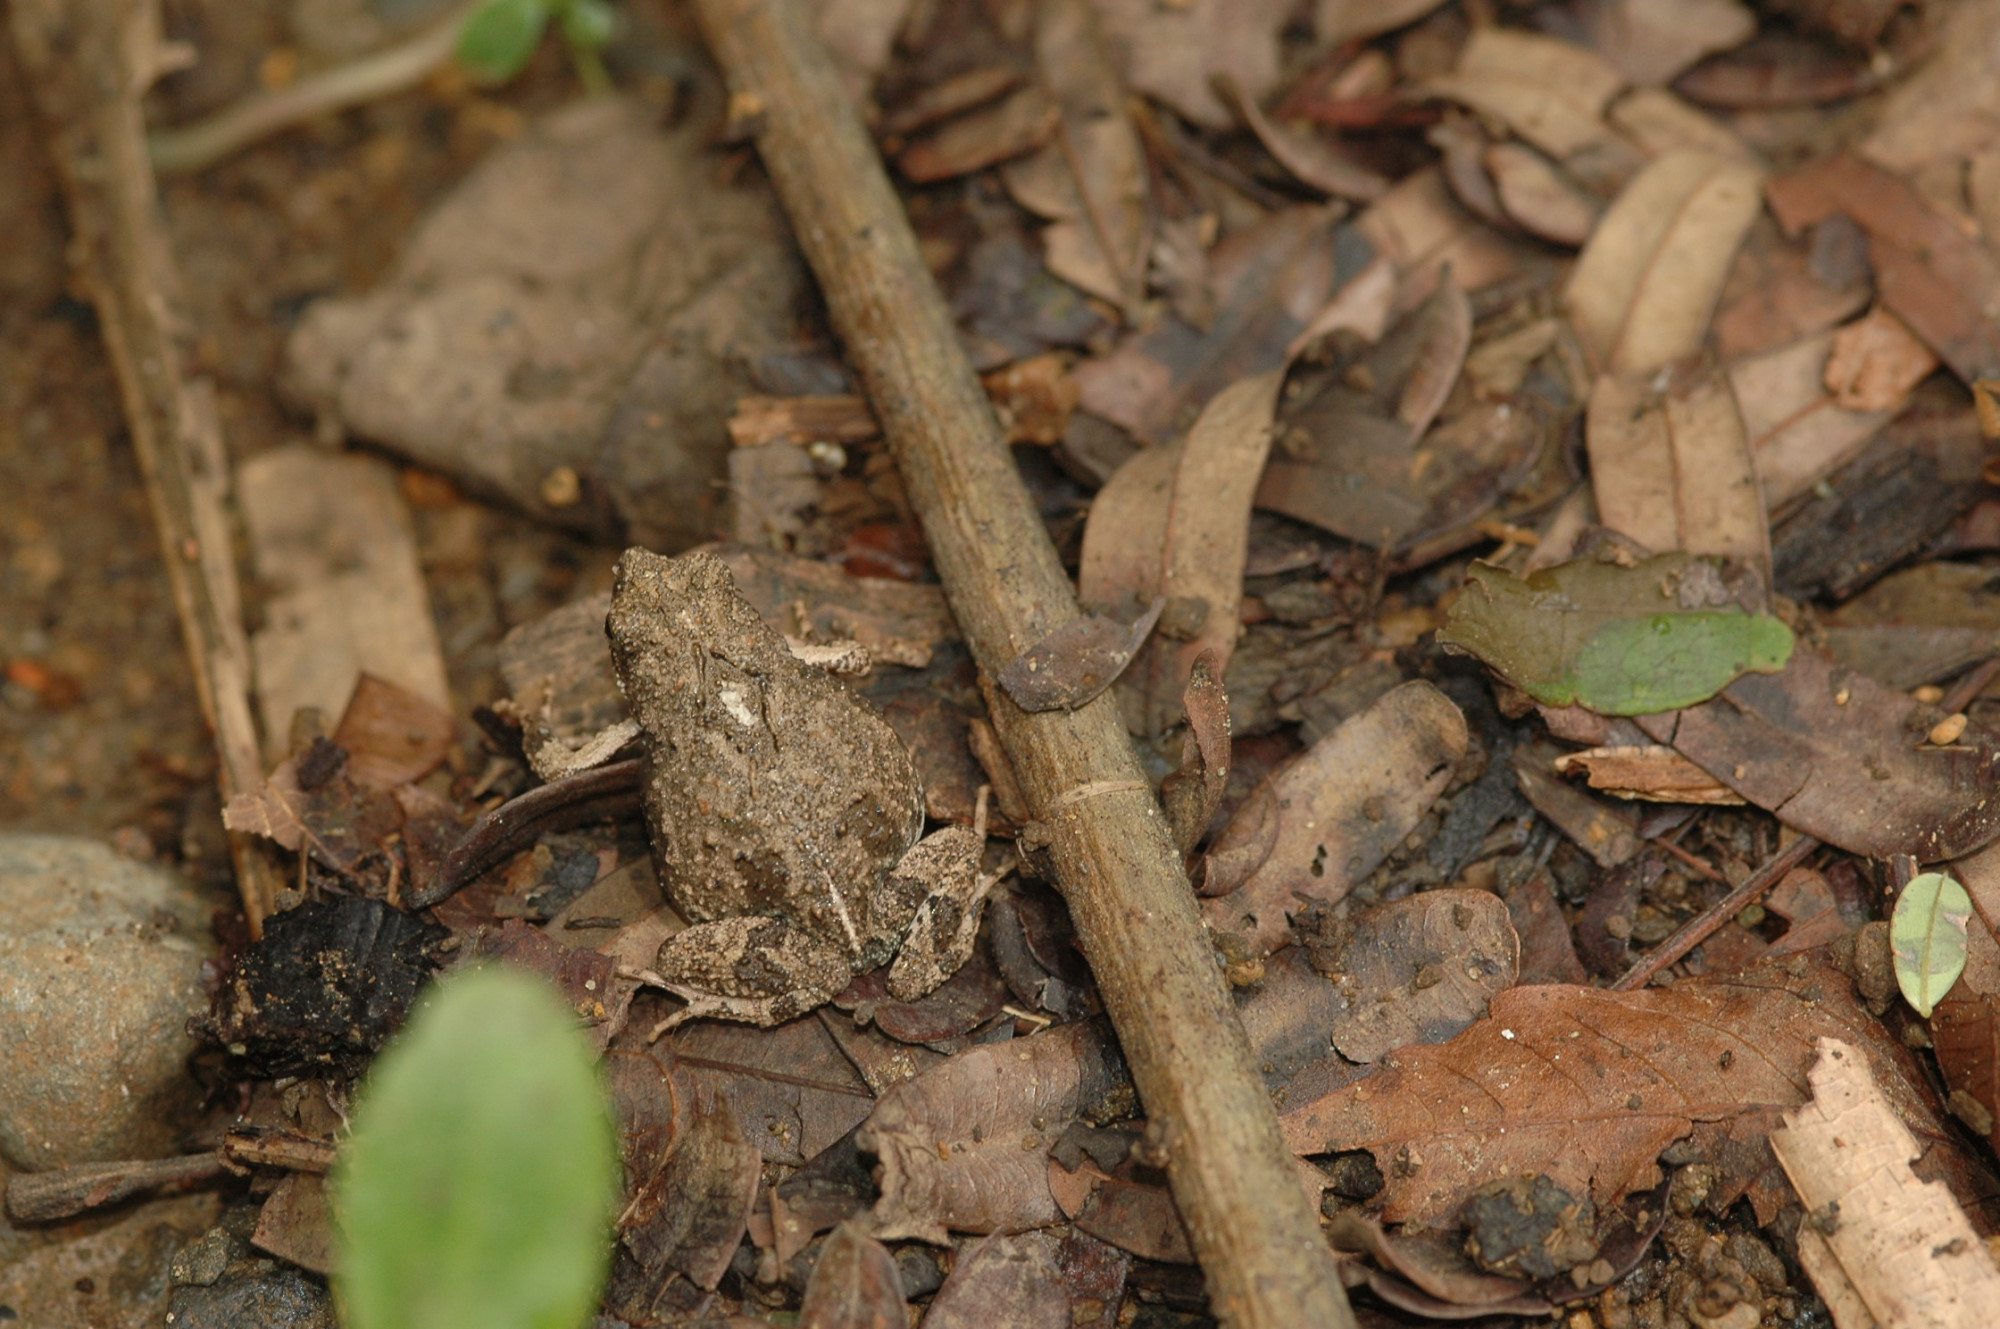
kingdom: Animalia
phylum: Chordata
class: Amphibia
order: Anura
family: Leptodactylidae
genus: Engystomops
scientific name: Engystomops pustulosus
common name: Tungara frog
